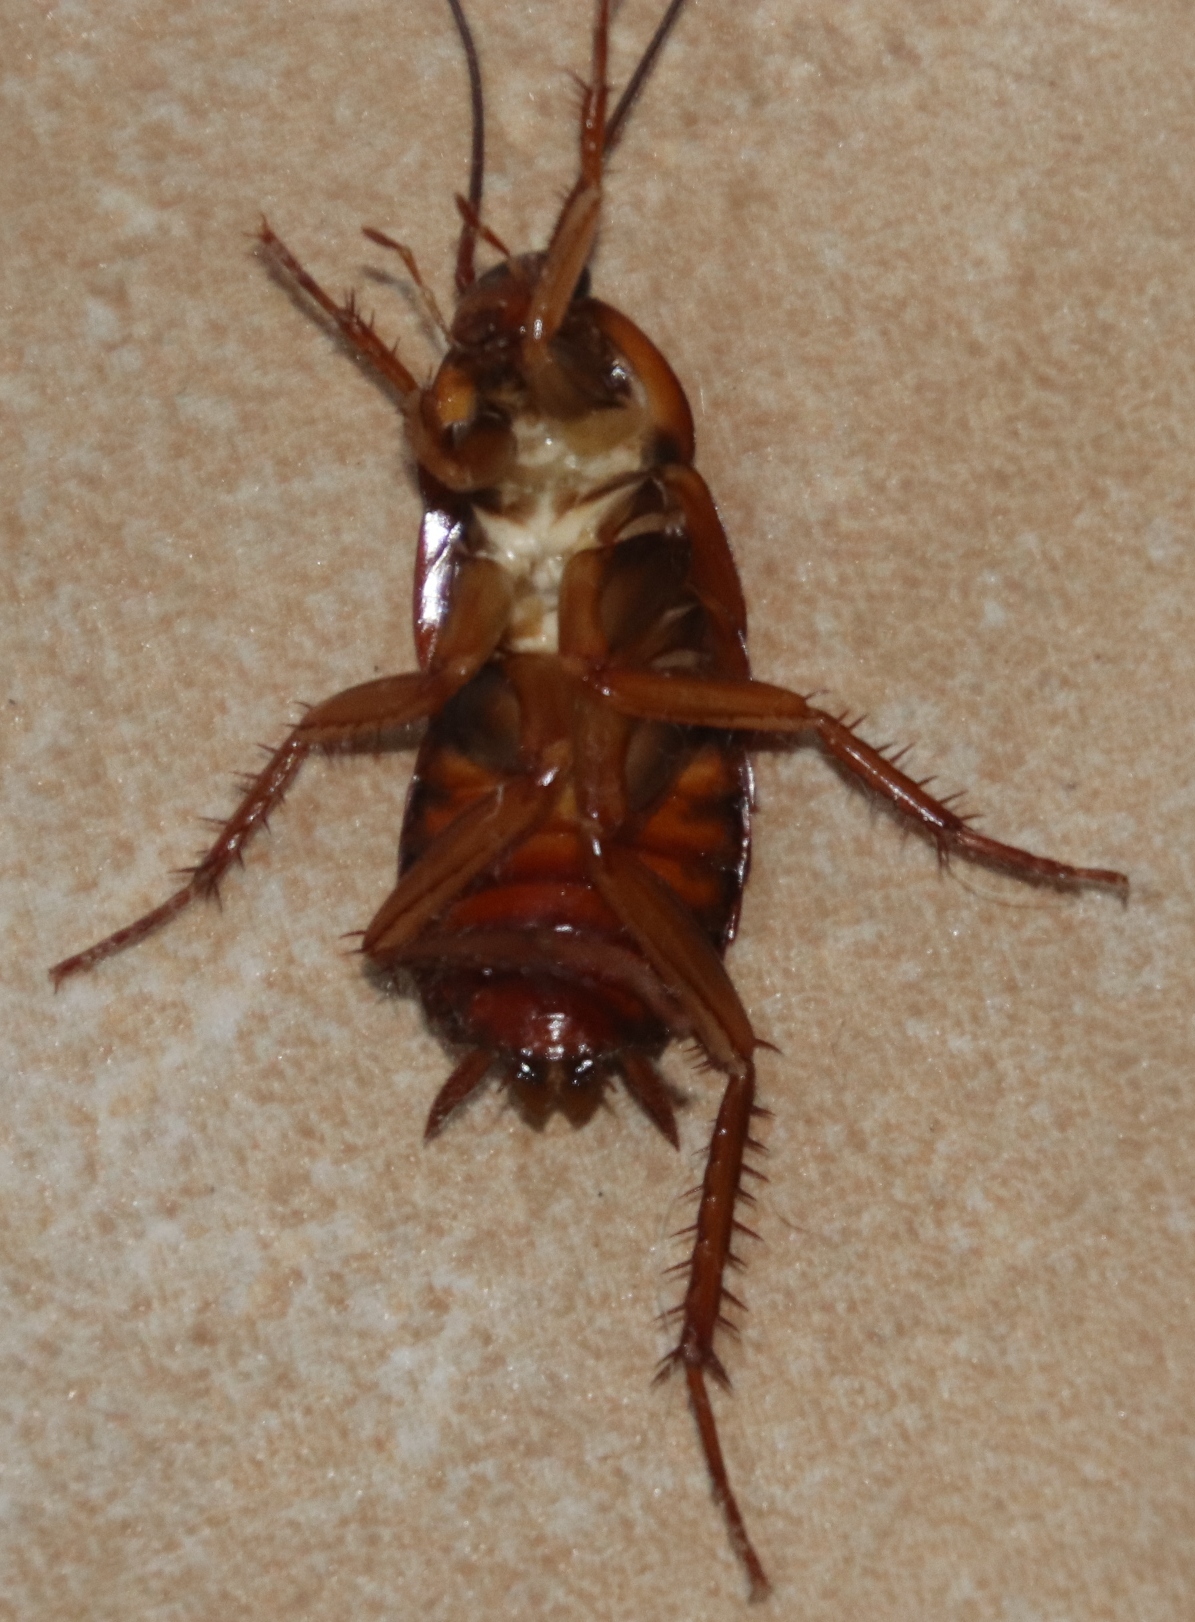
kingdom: Animalia
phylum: Arthropoda
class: Insecta
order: Blattodea
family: Blattidae
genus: Periplaneta
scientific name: Periplaneta americana
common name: American cockroach
